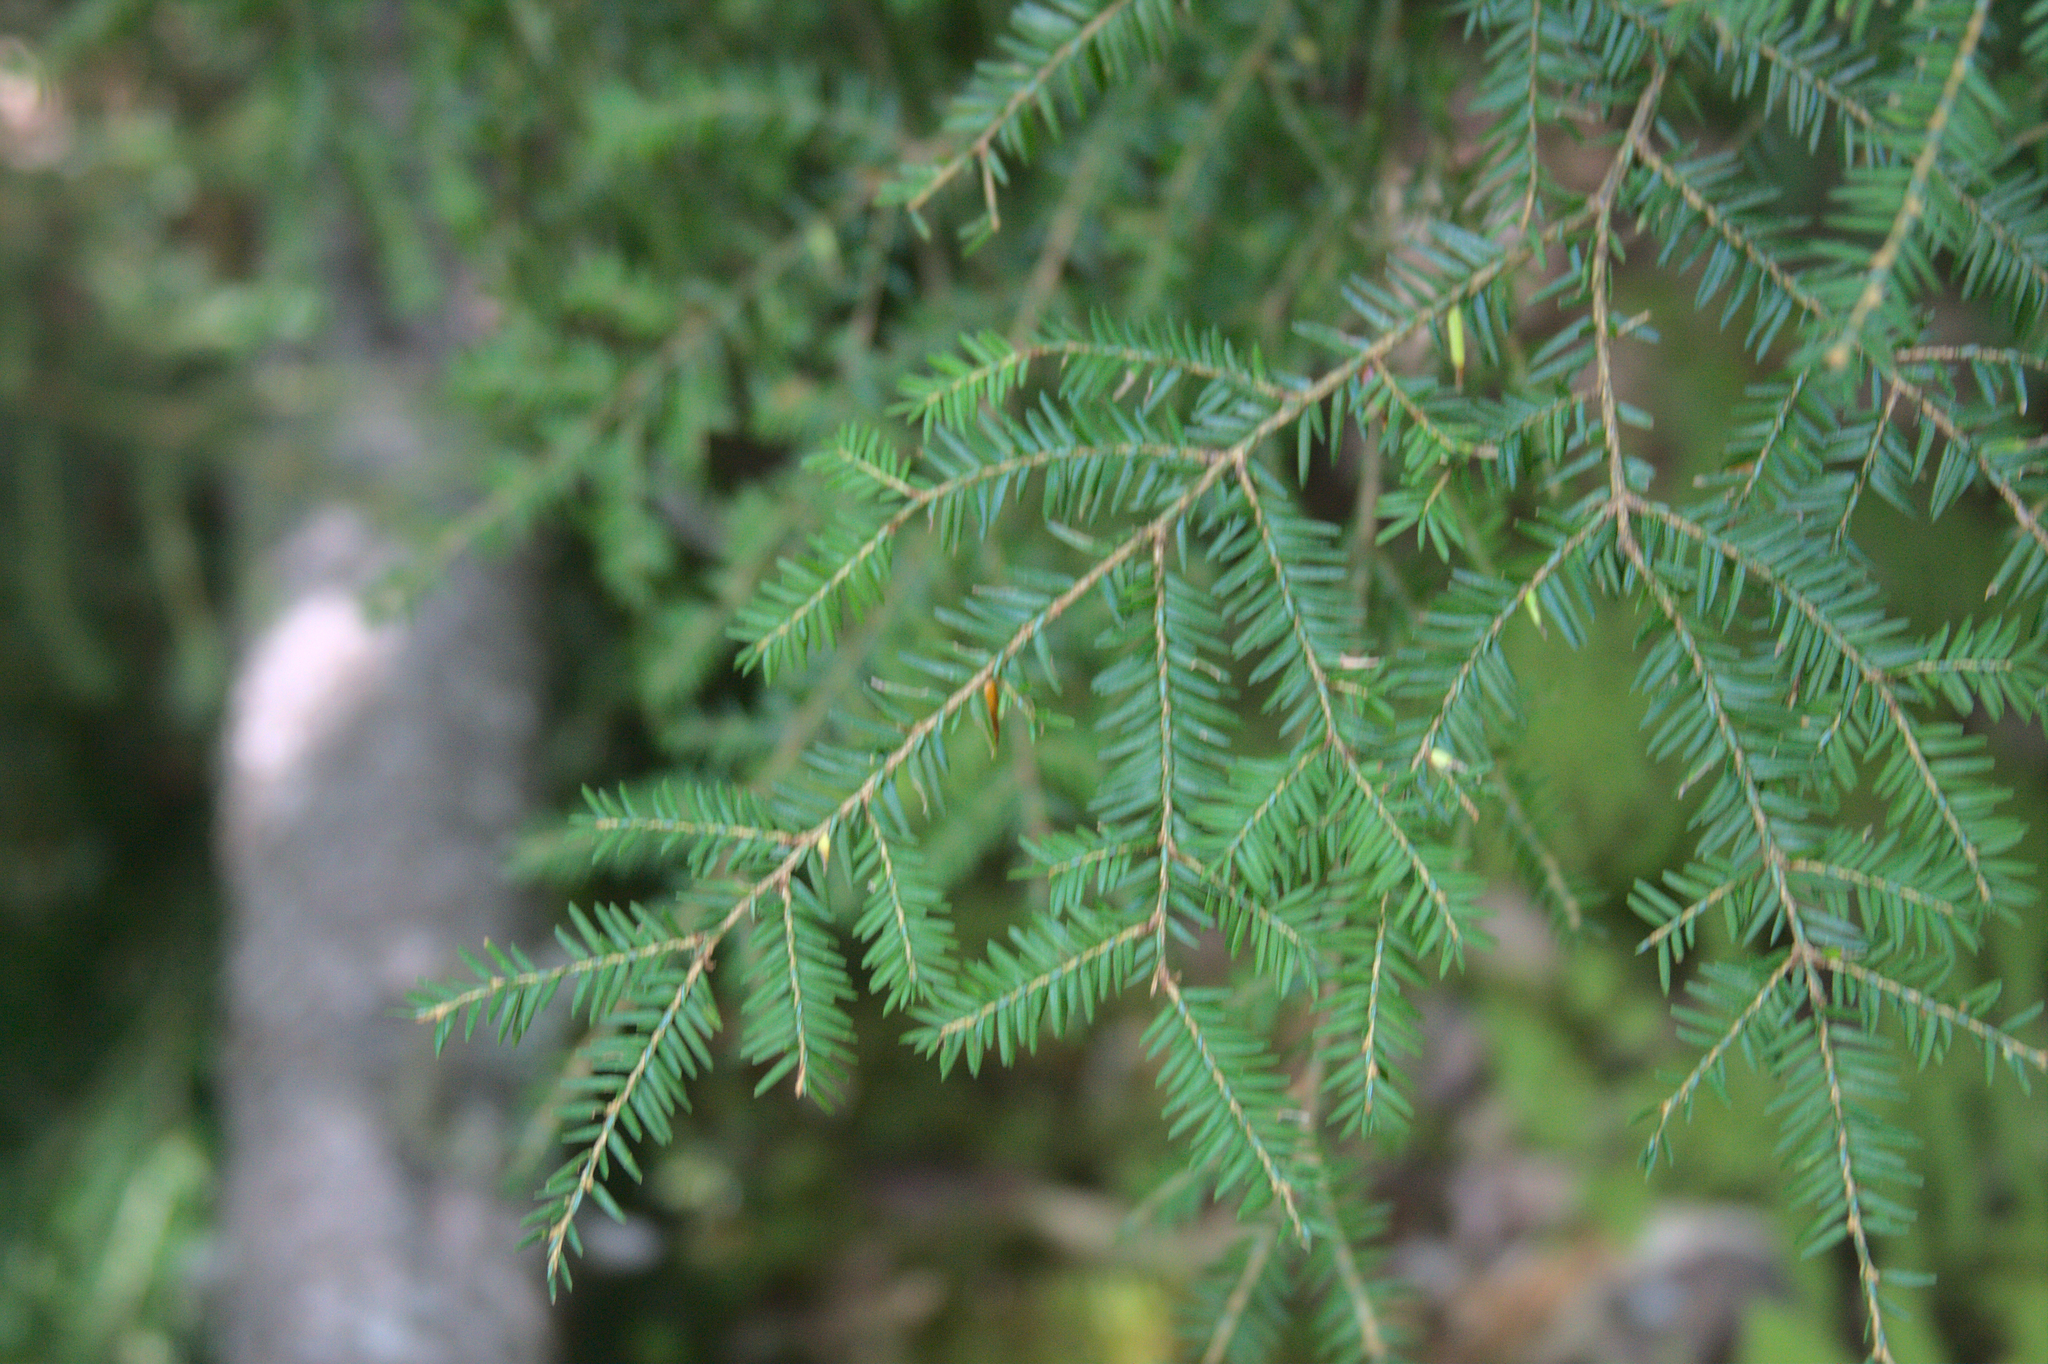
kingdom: Plantae
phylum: Tracheophyta
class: Pinopsida
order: Pinales
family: Pinaceae
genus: Tsuga
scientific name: Tsuga canadensis
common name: Eastern hemlock
